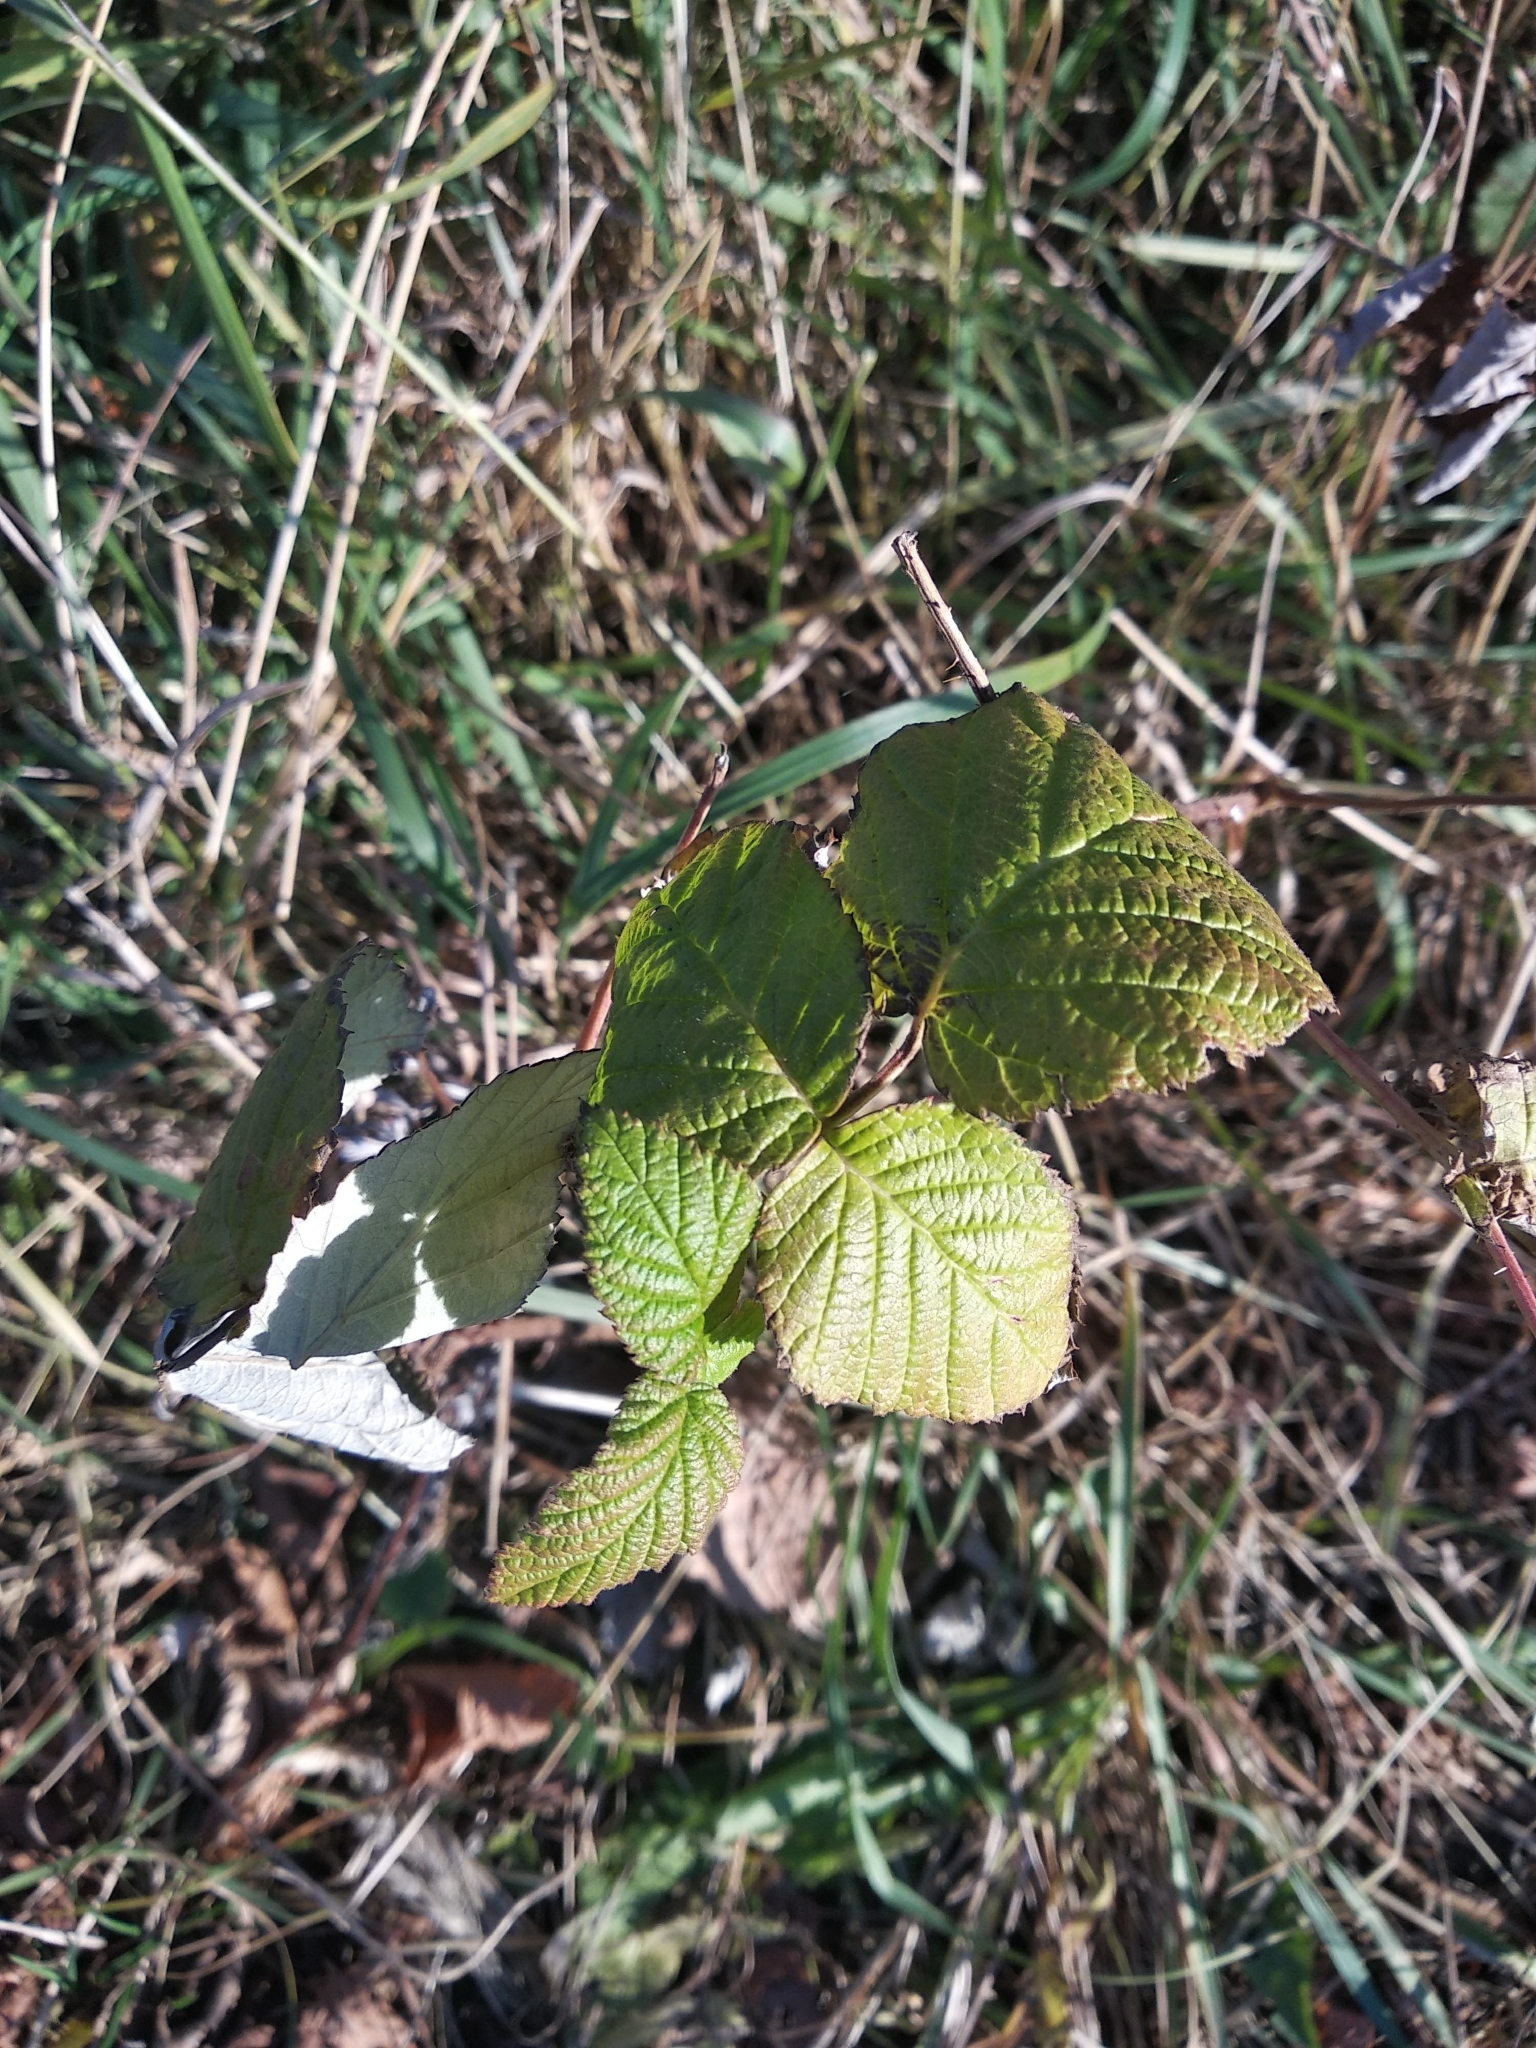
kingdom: Plantae
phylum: Tracheophyta
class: Magnoliopsida
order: Rosales
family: Rosaceae
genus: Rubus
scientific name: Rubus idaeus
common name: Raspberry
